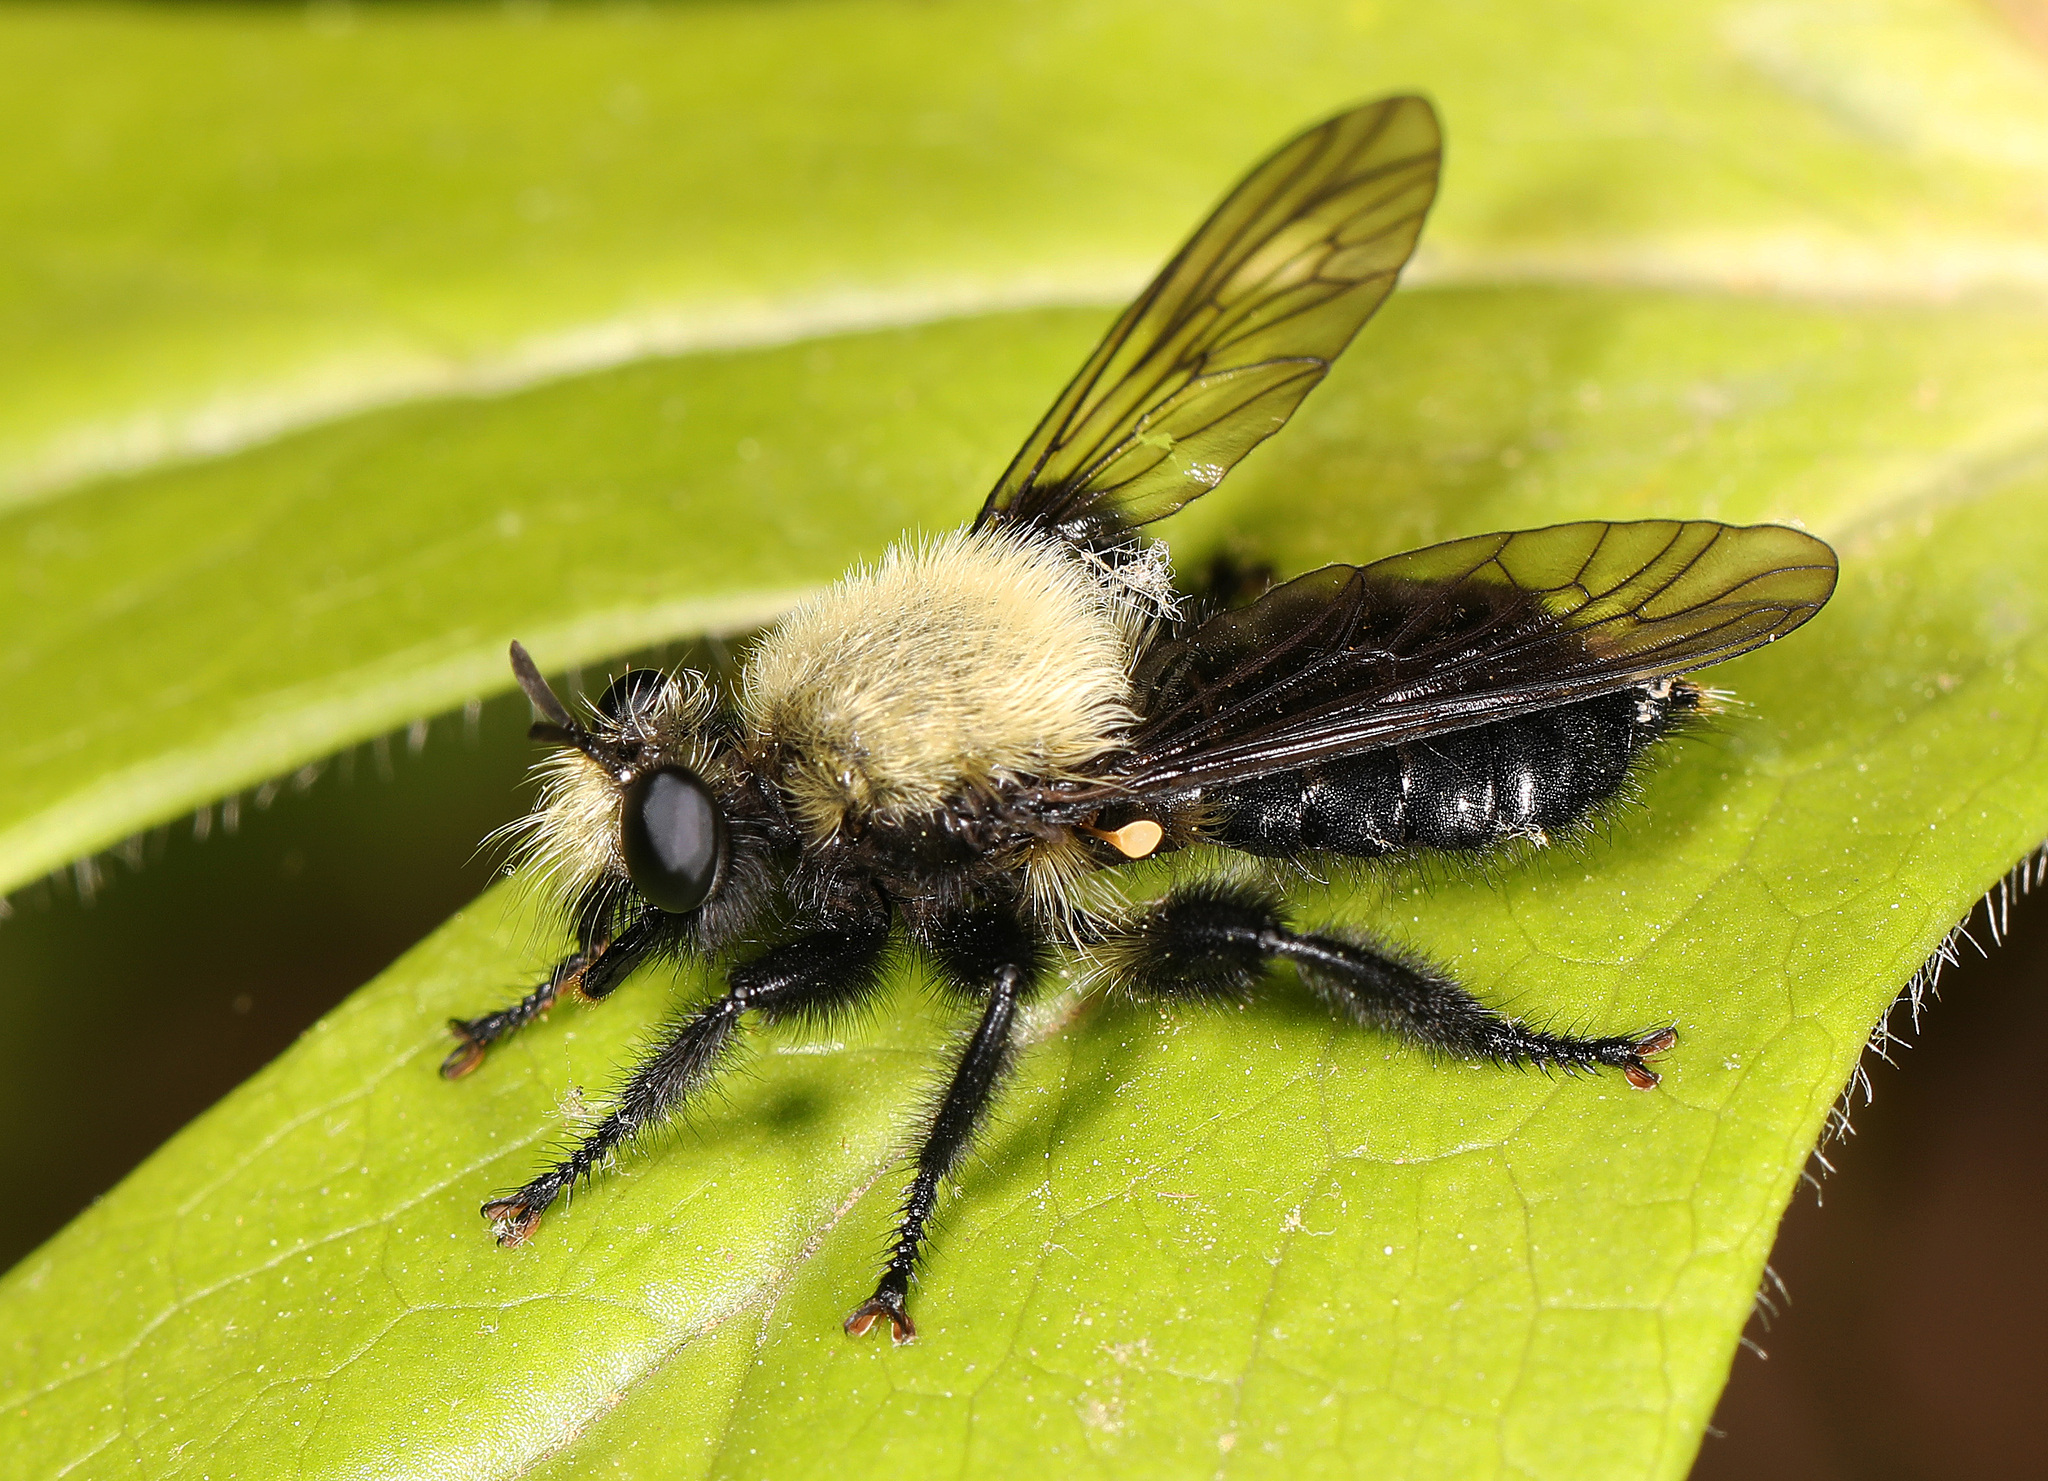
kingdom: Animalia
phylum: Arthropoda
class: Insecta
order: Diptera
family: Asilidae
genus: Laphria
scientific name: Laphria flavicollis
